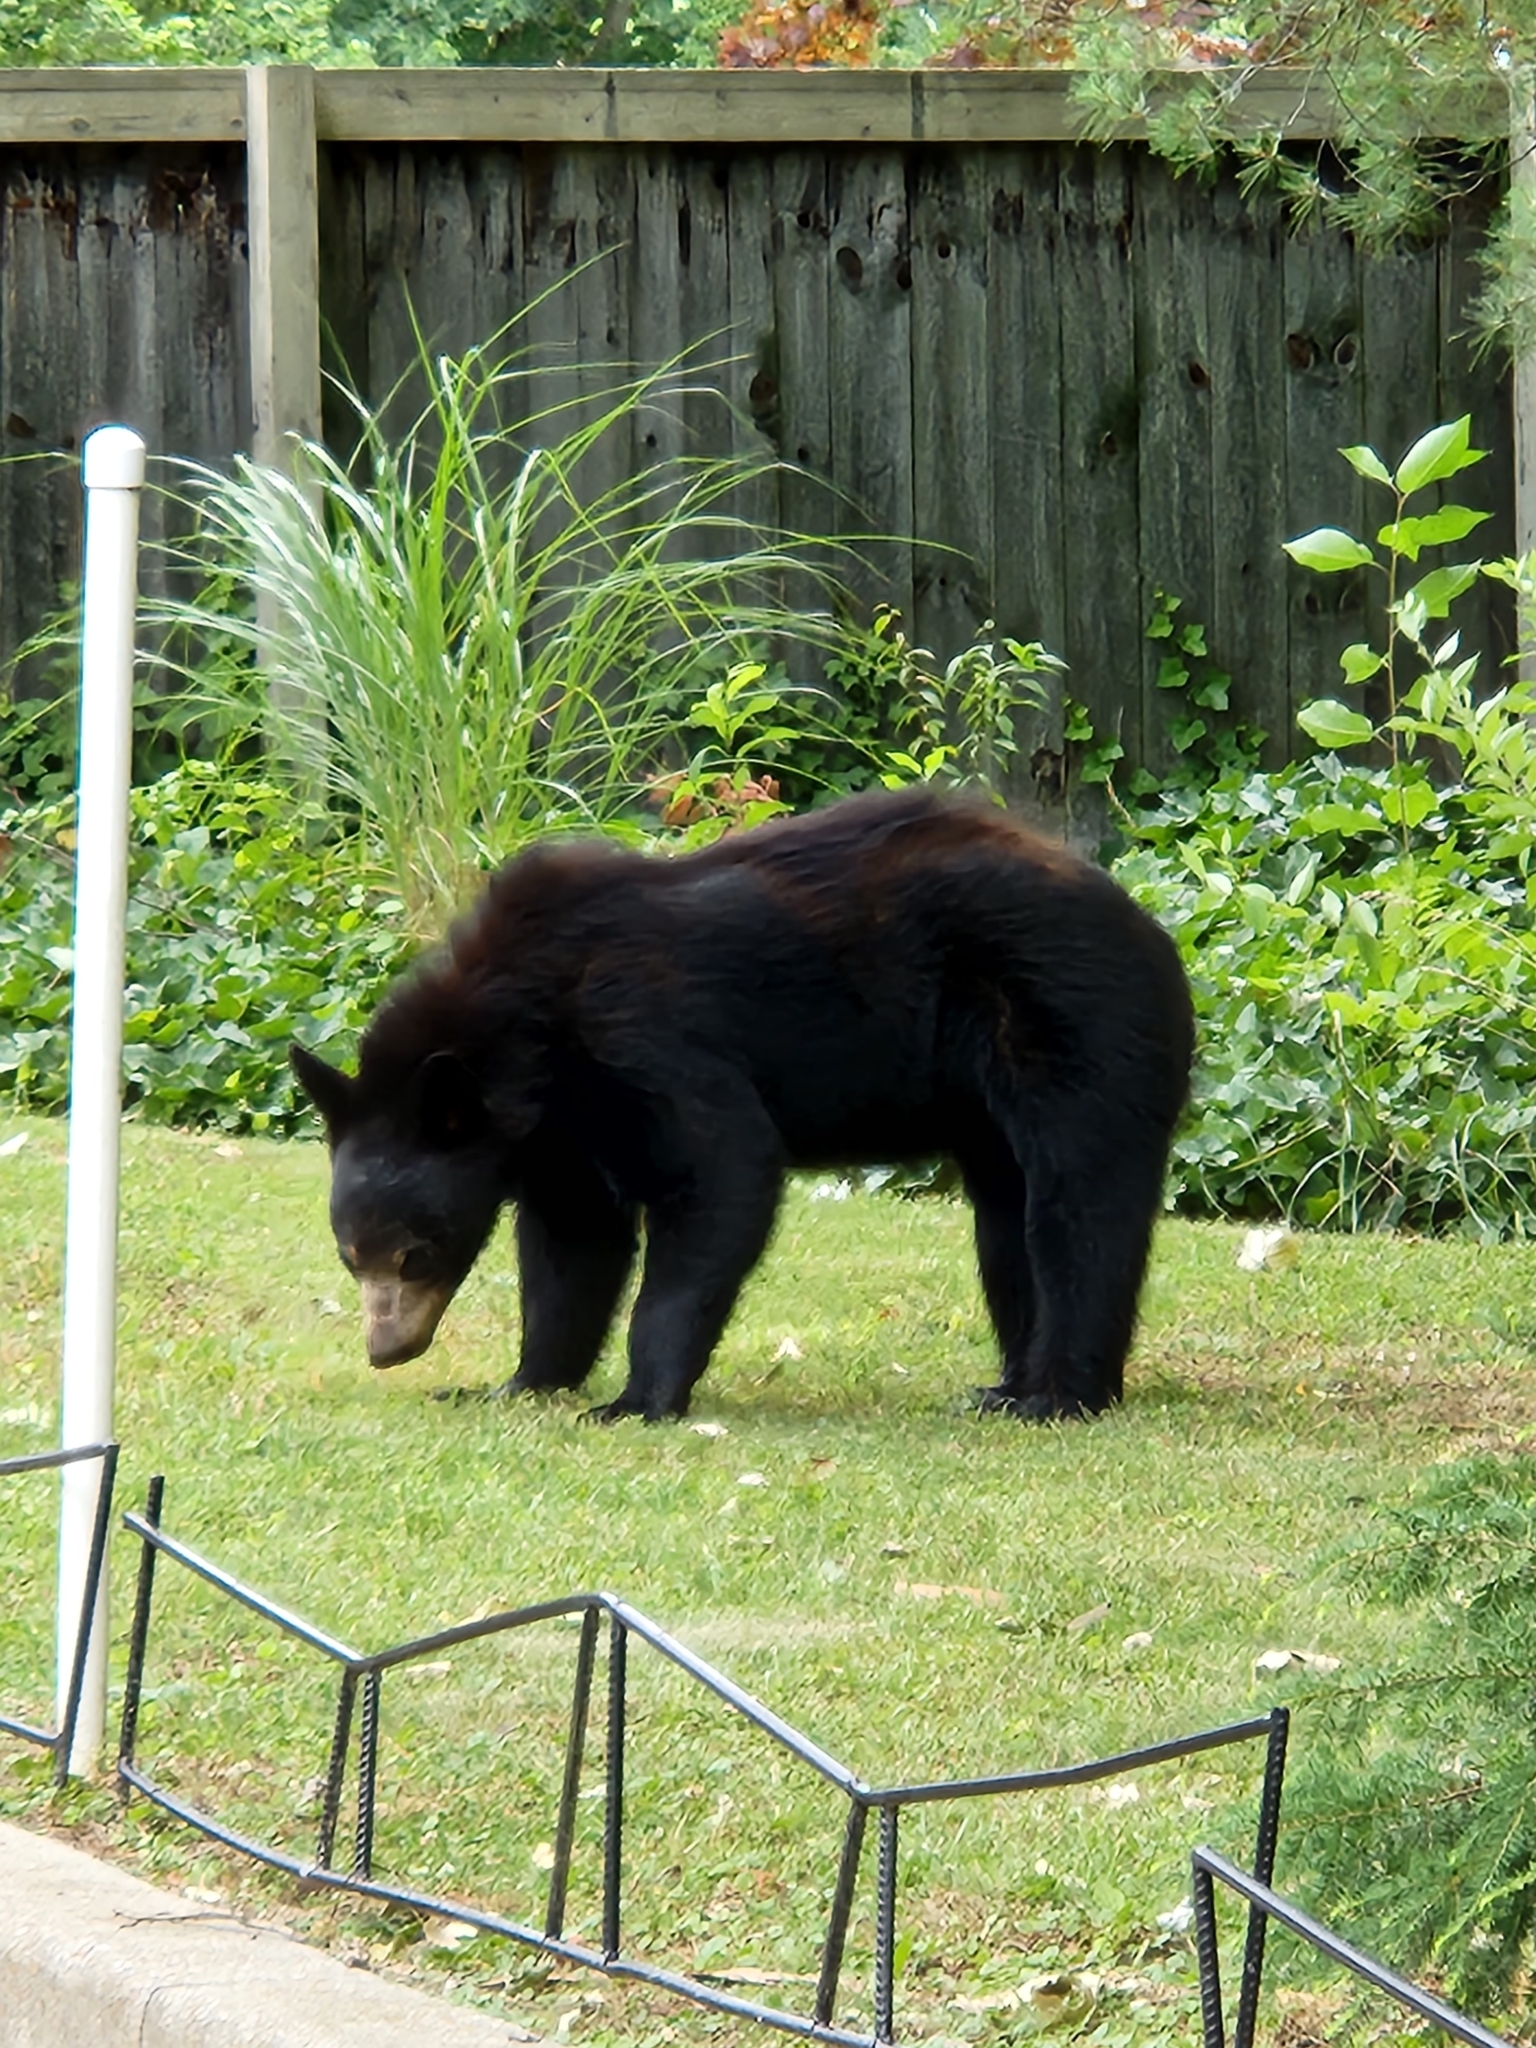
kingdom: Animalia
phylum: Chordata
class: Mammalia
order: Carnivora
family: Ursidae
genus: Ursus
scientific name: Ursus americanus
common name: American black bear
